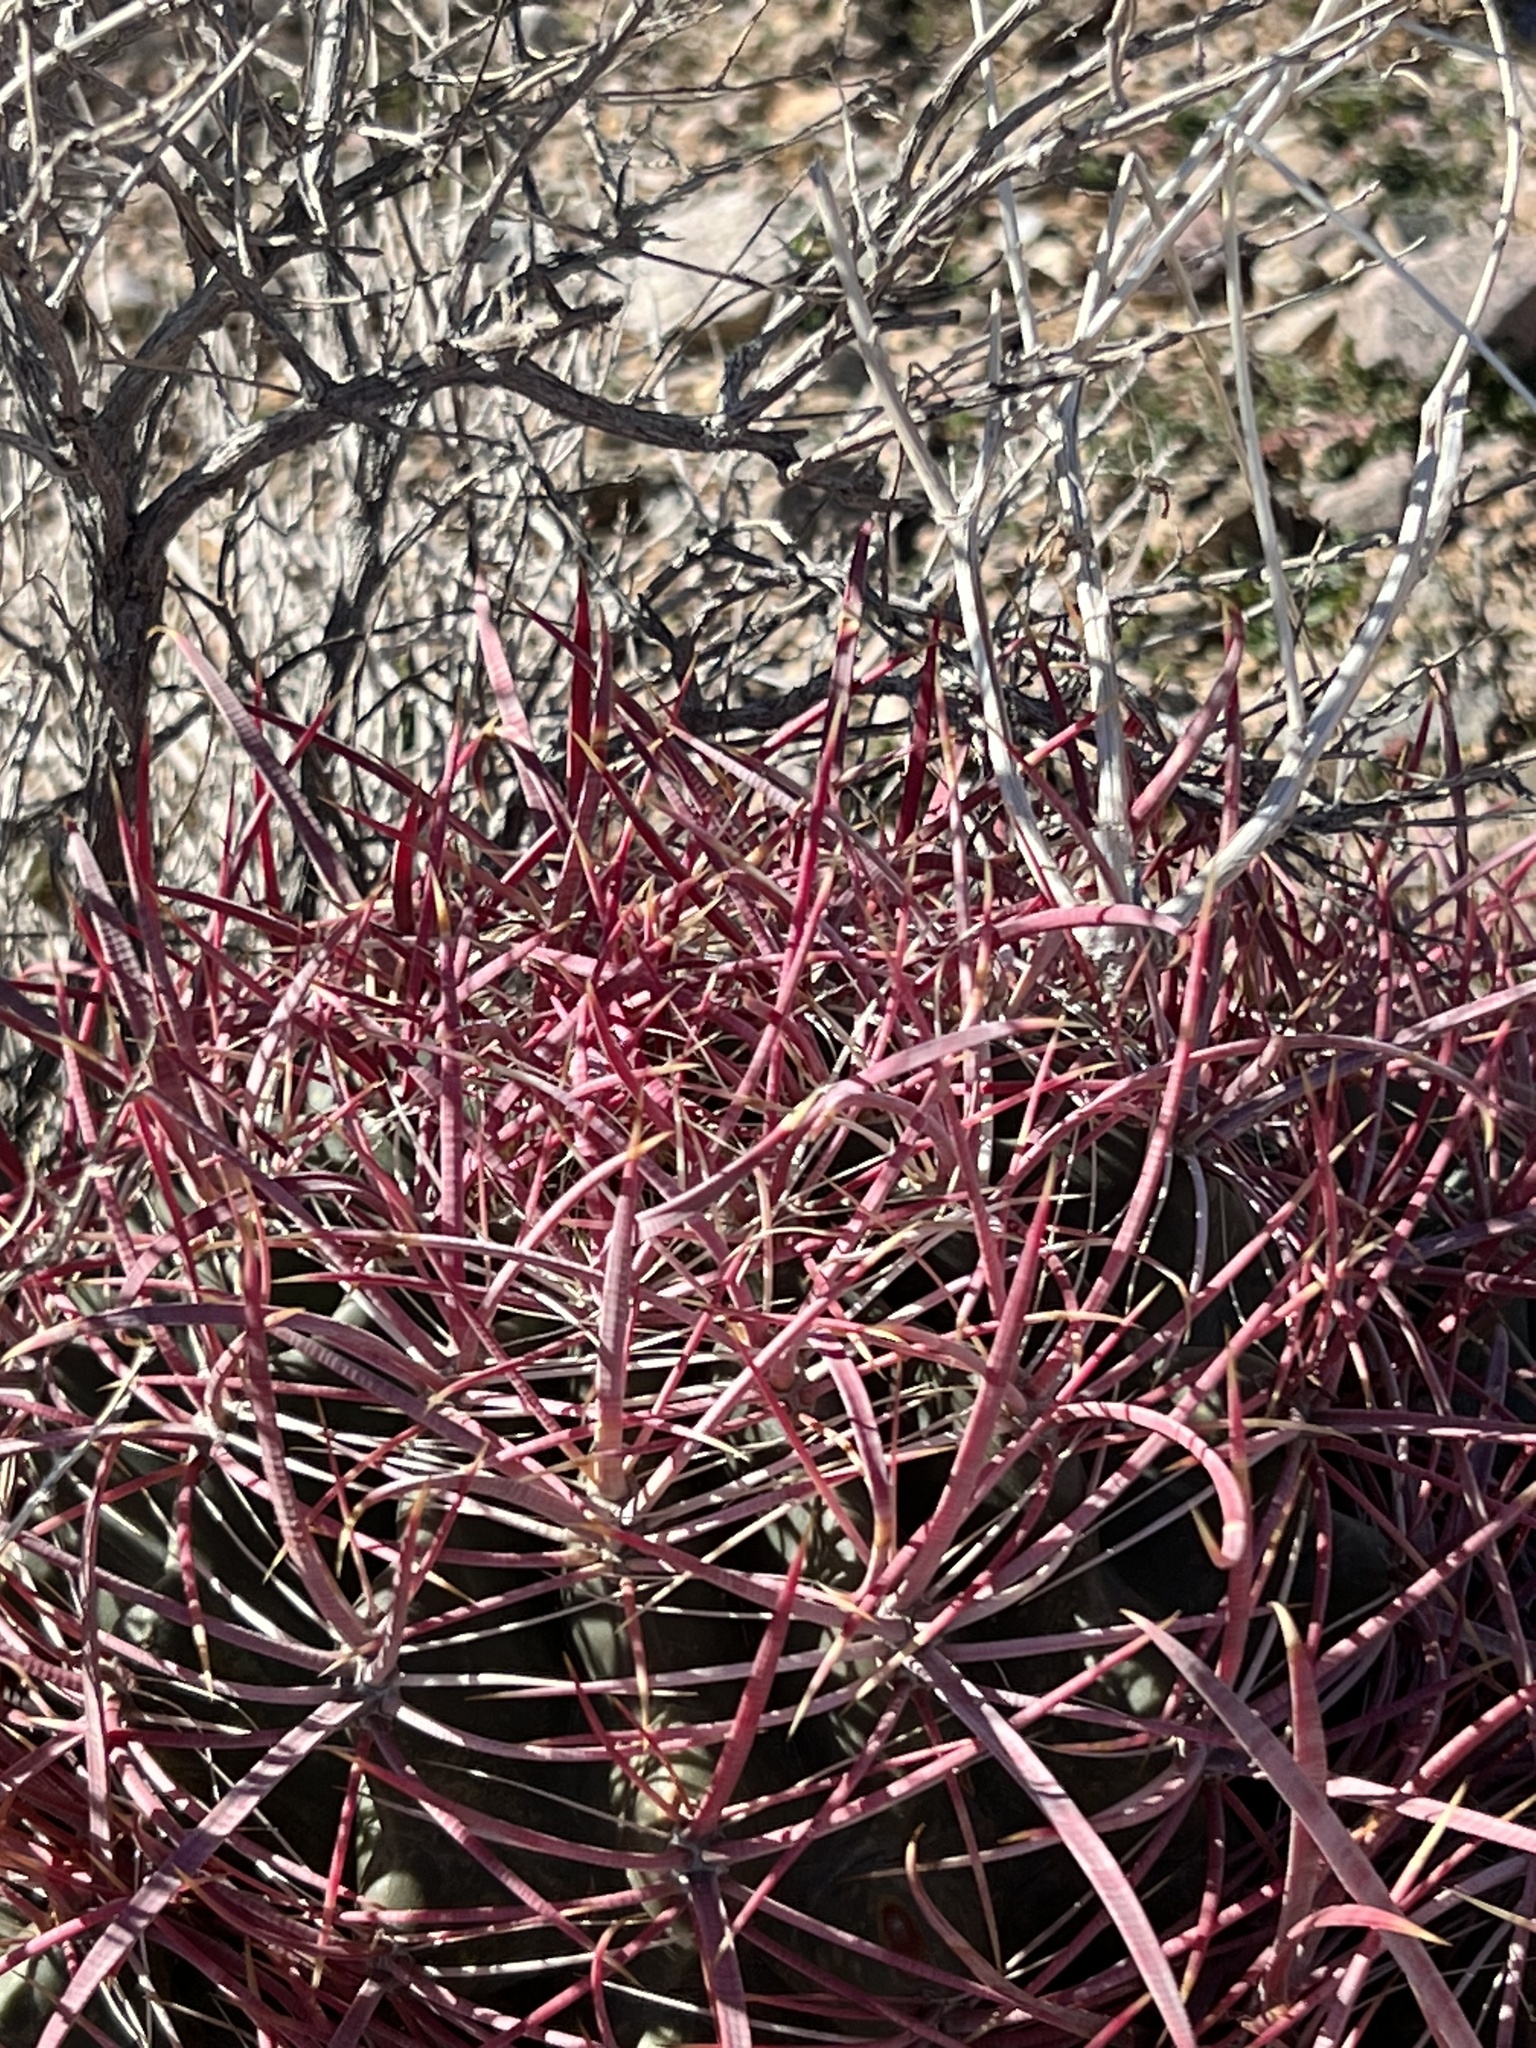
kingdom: Plantae
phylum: Tracheophyta
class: Magnoliopsida
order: Caryophyllales
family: Cactaceae
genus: Ferocactus
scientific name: Ferocactus cylindraceus
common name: California barrel cactus
